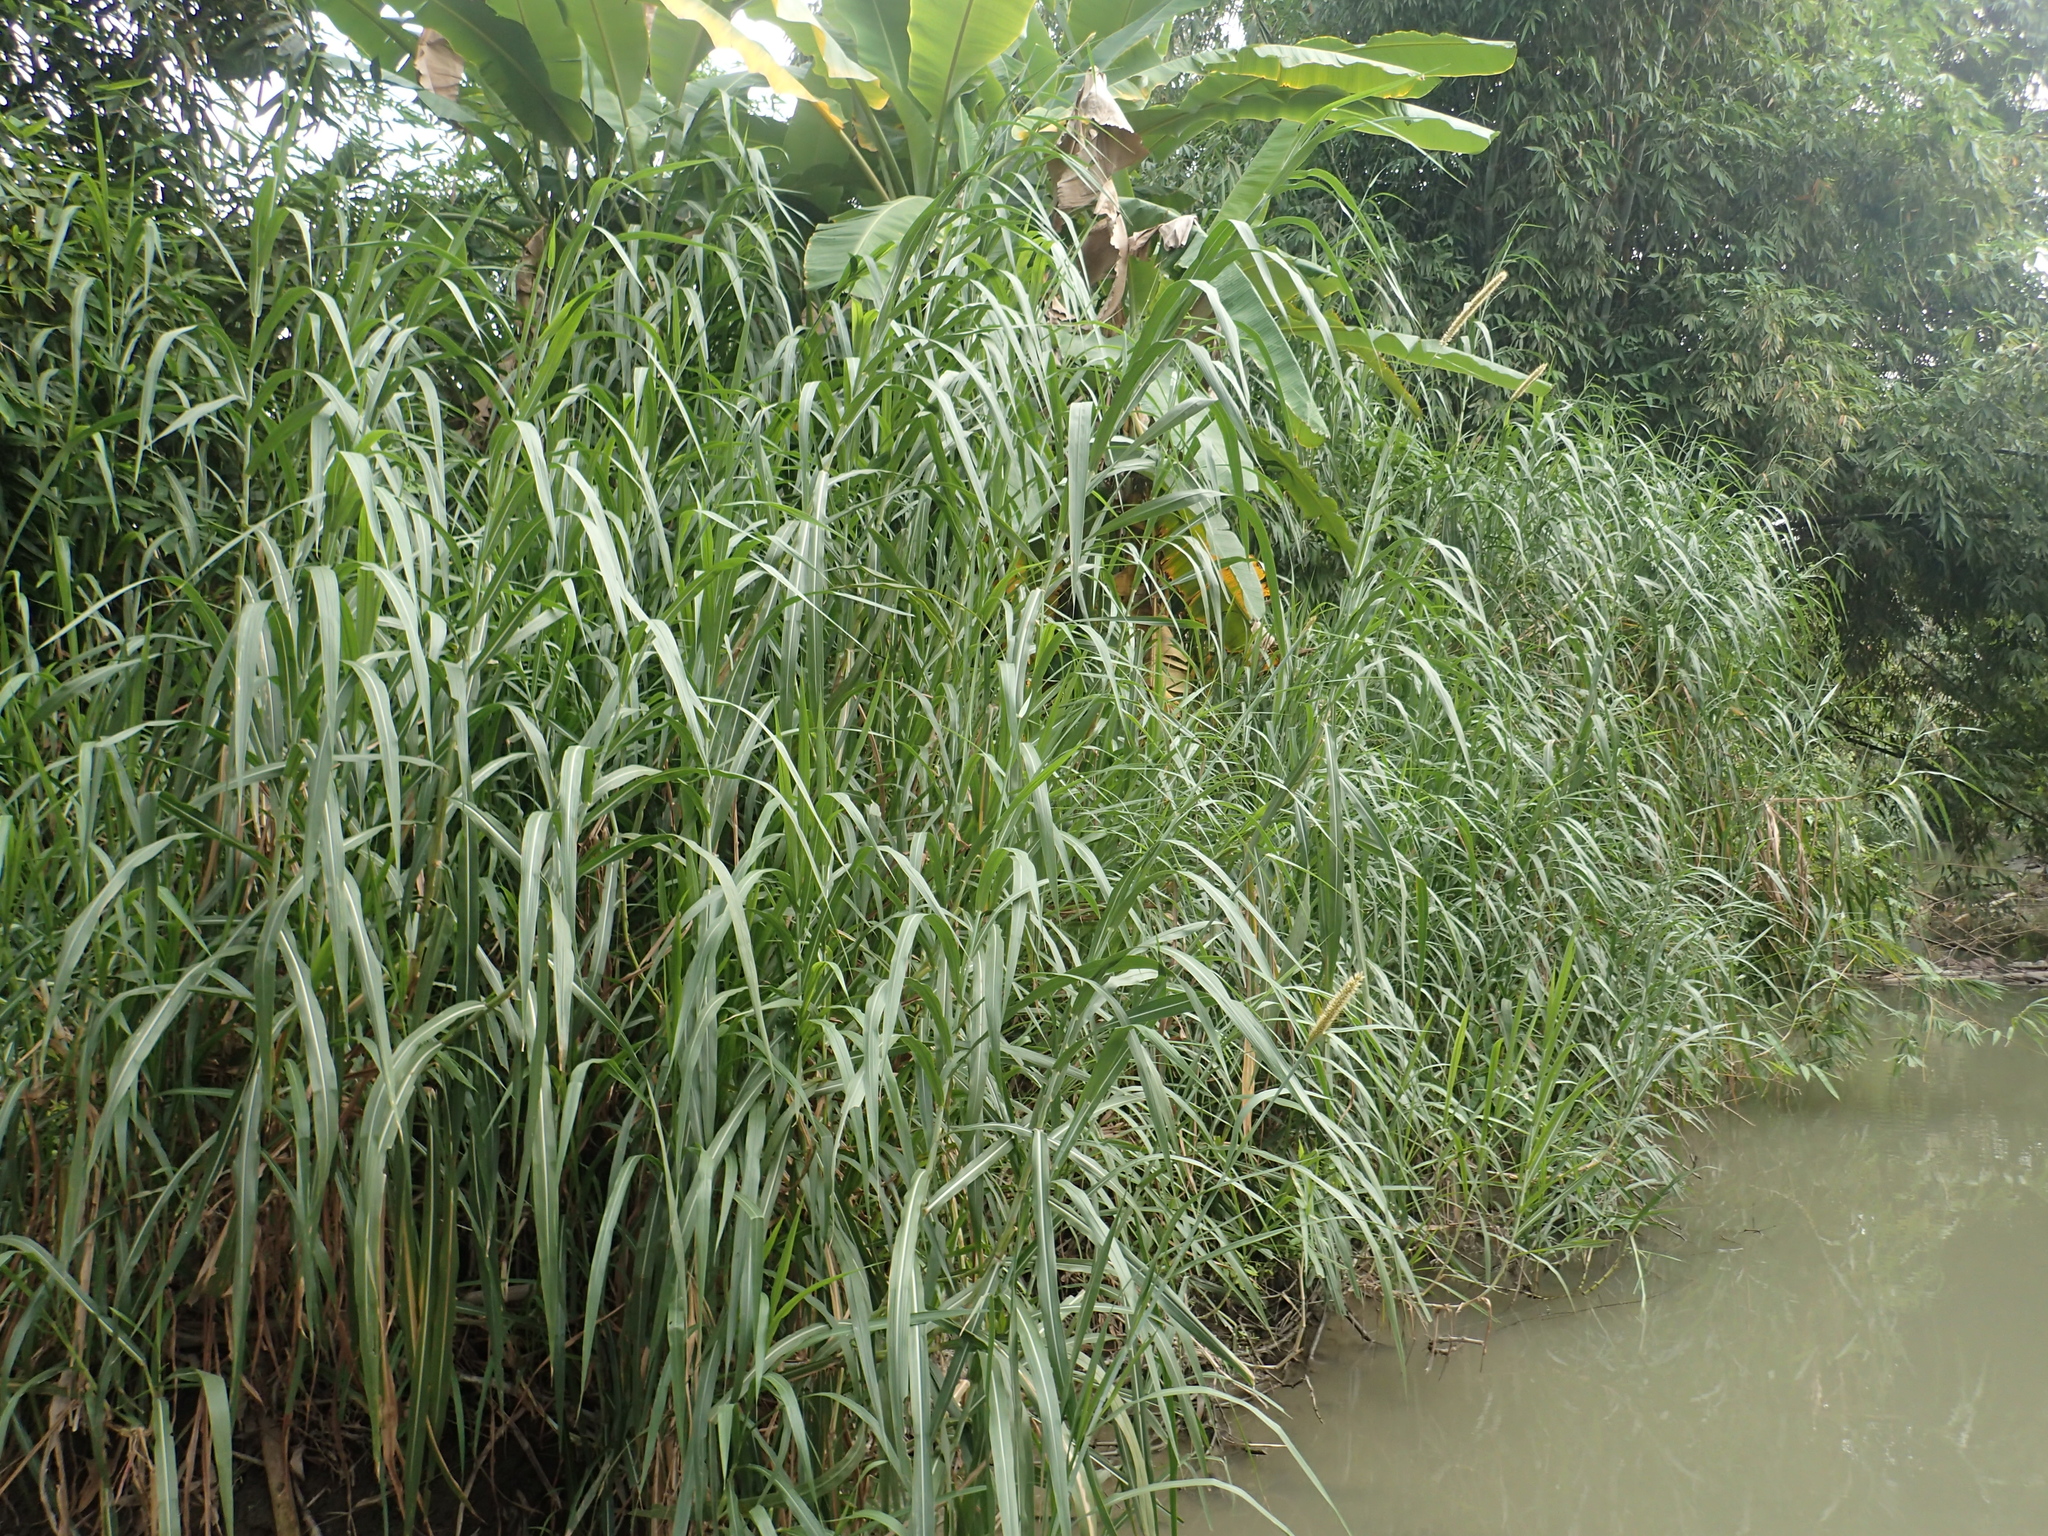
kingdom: Plantae
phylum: Tracheophyta
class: Liliopsida
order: Poales
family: Poaceae
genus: Cenchrus
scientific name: Cenchrus purpureus
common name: Elephant grass
